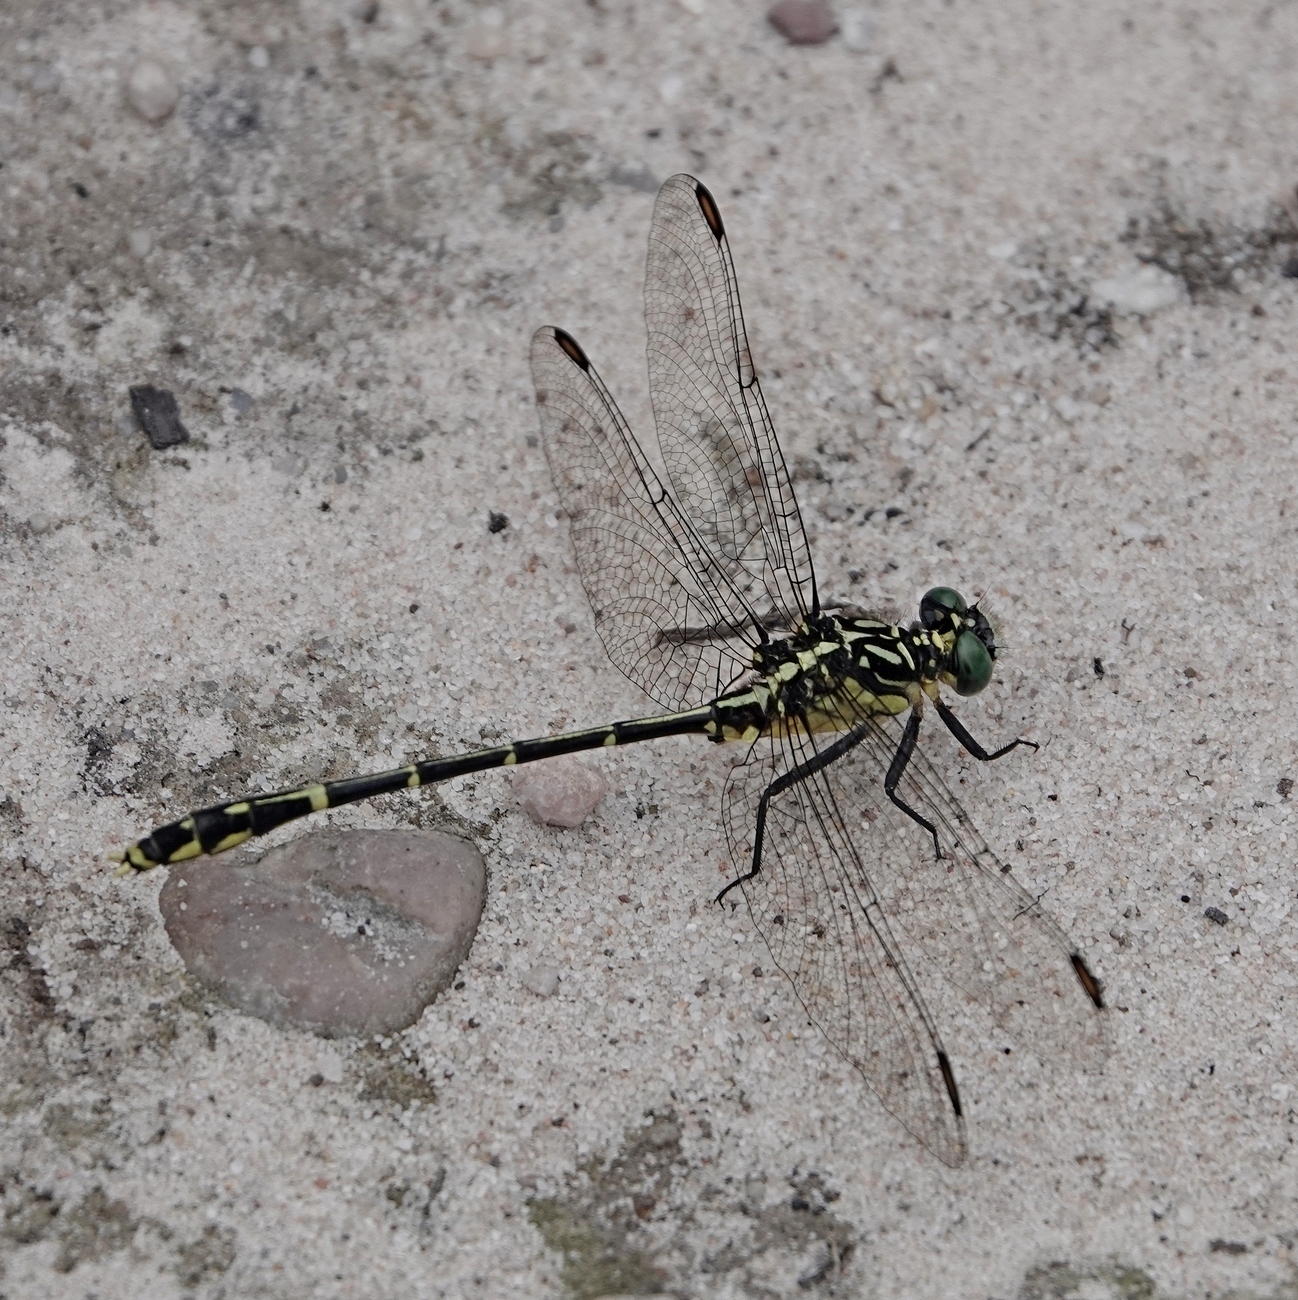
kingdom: Animalia
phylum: Arthropoda
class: Insecta
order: Odonata
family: Gomphidae
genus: Austrogomphus
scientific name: Austrogomphus ochraceus
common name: Jade hunter
